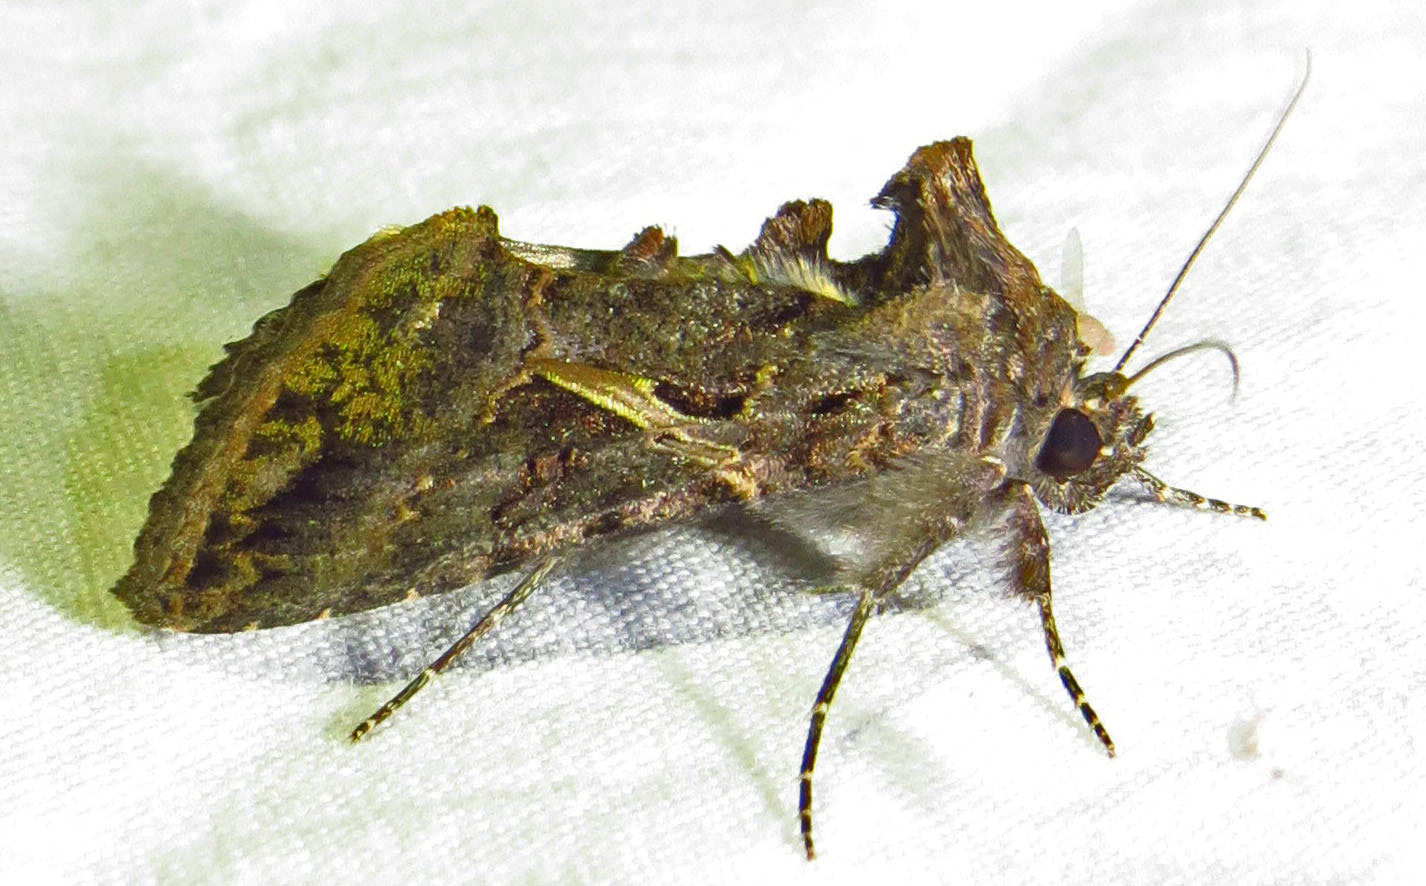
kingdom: Animalia
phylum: Arthropoda
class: Insecta
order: Lepidoptera
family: Noctuidae
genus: Ctenoplusia
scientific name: Ctenoplusia oxygramma
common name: Sharp-stigma looper moth
